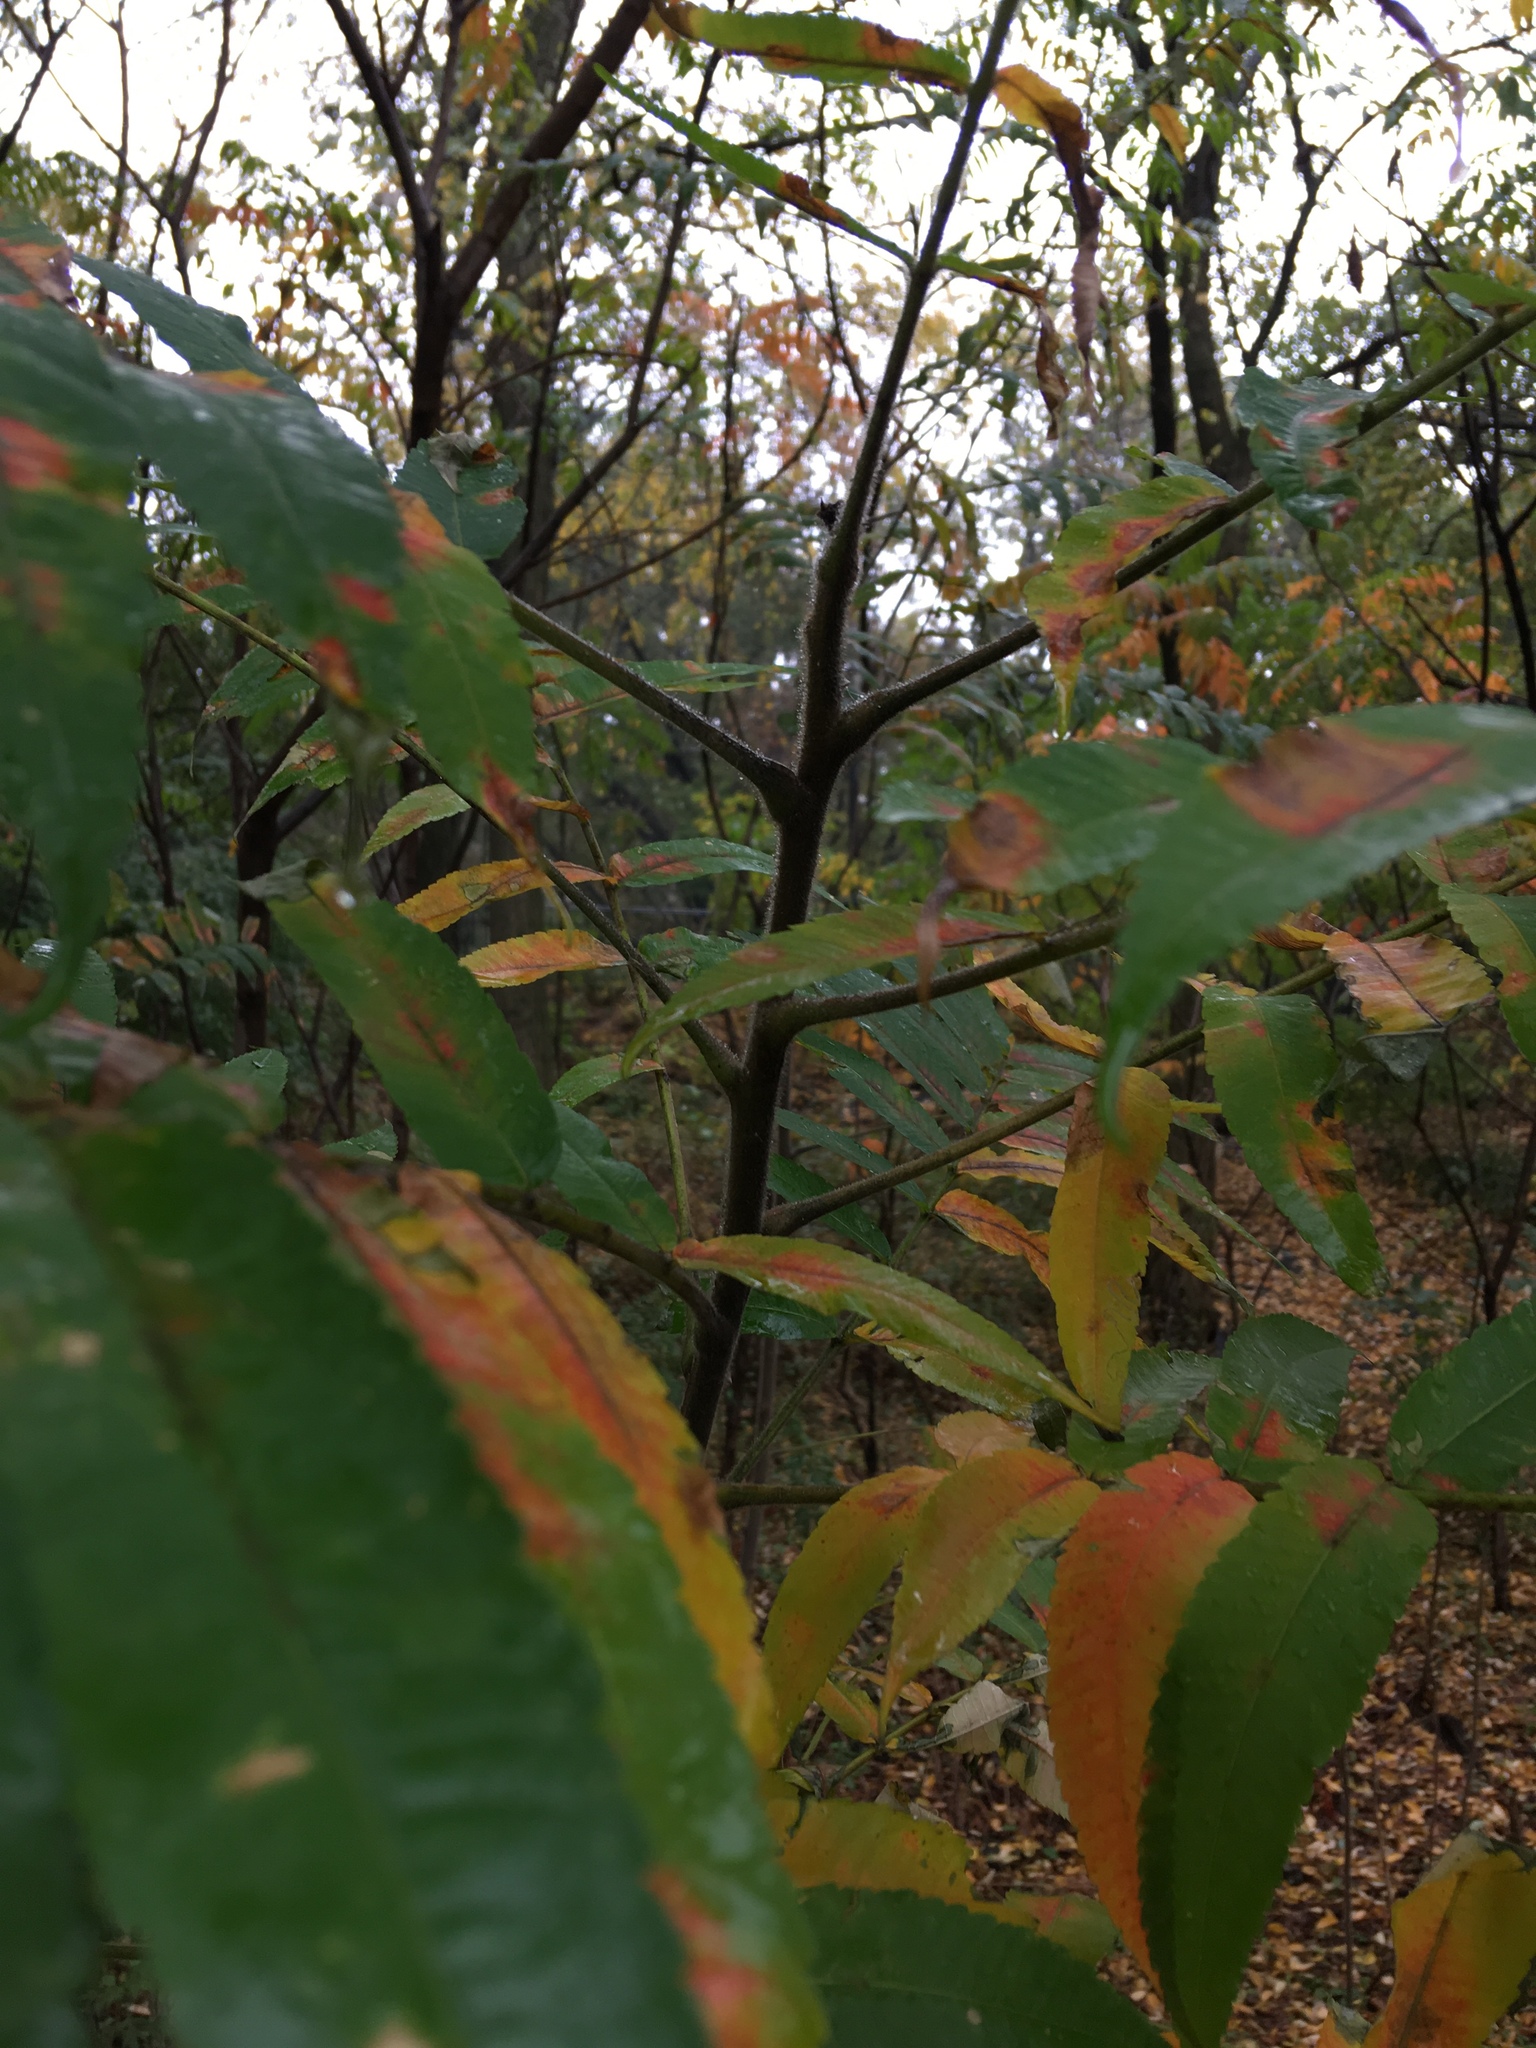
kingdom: Plantae
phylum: Tracheophyta
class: Magnoliopsida
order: Sapindales
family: Anacardiaceae
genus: Rhus
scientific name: Rhus typhina
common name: Staghorn sumac
